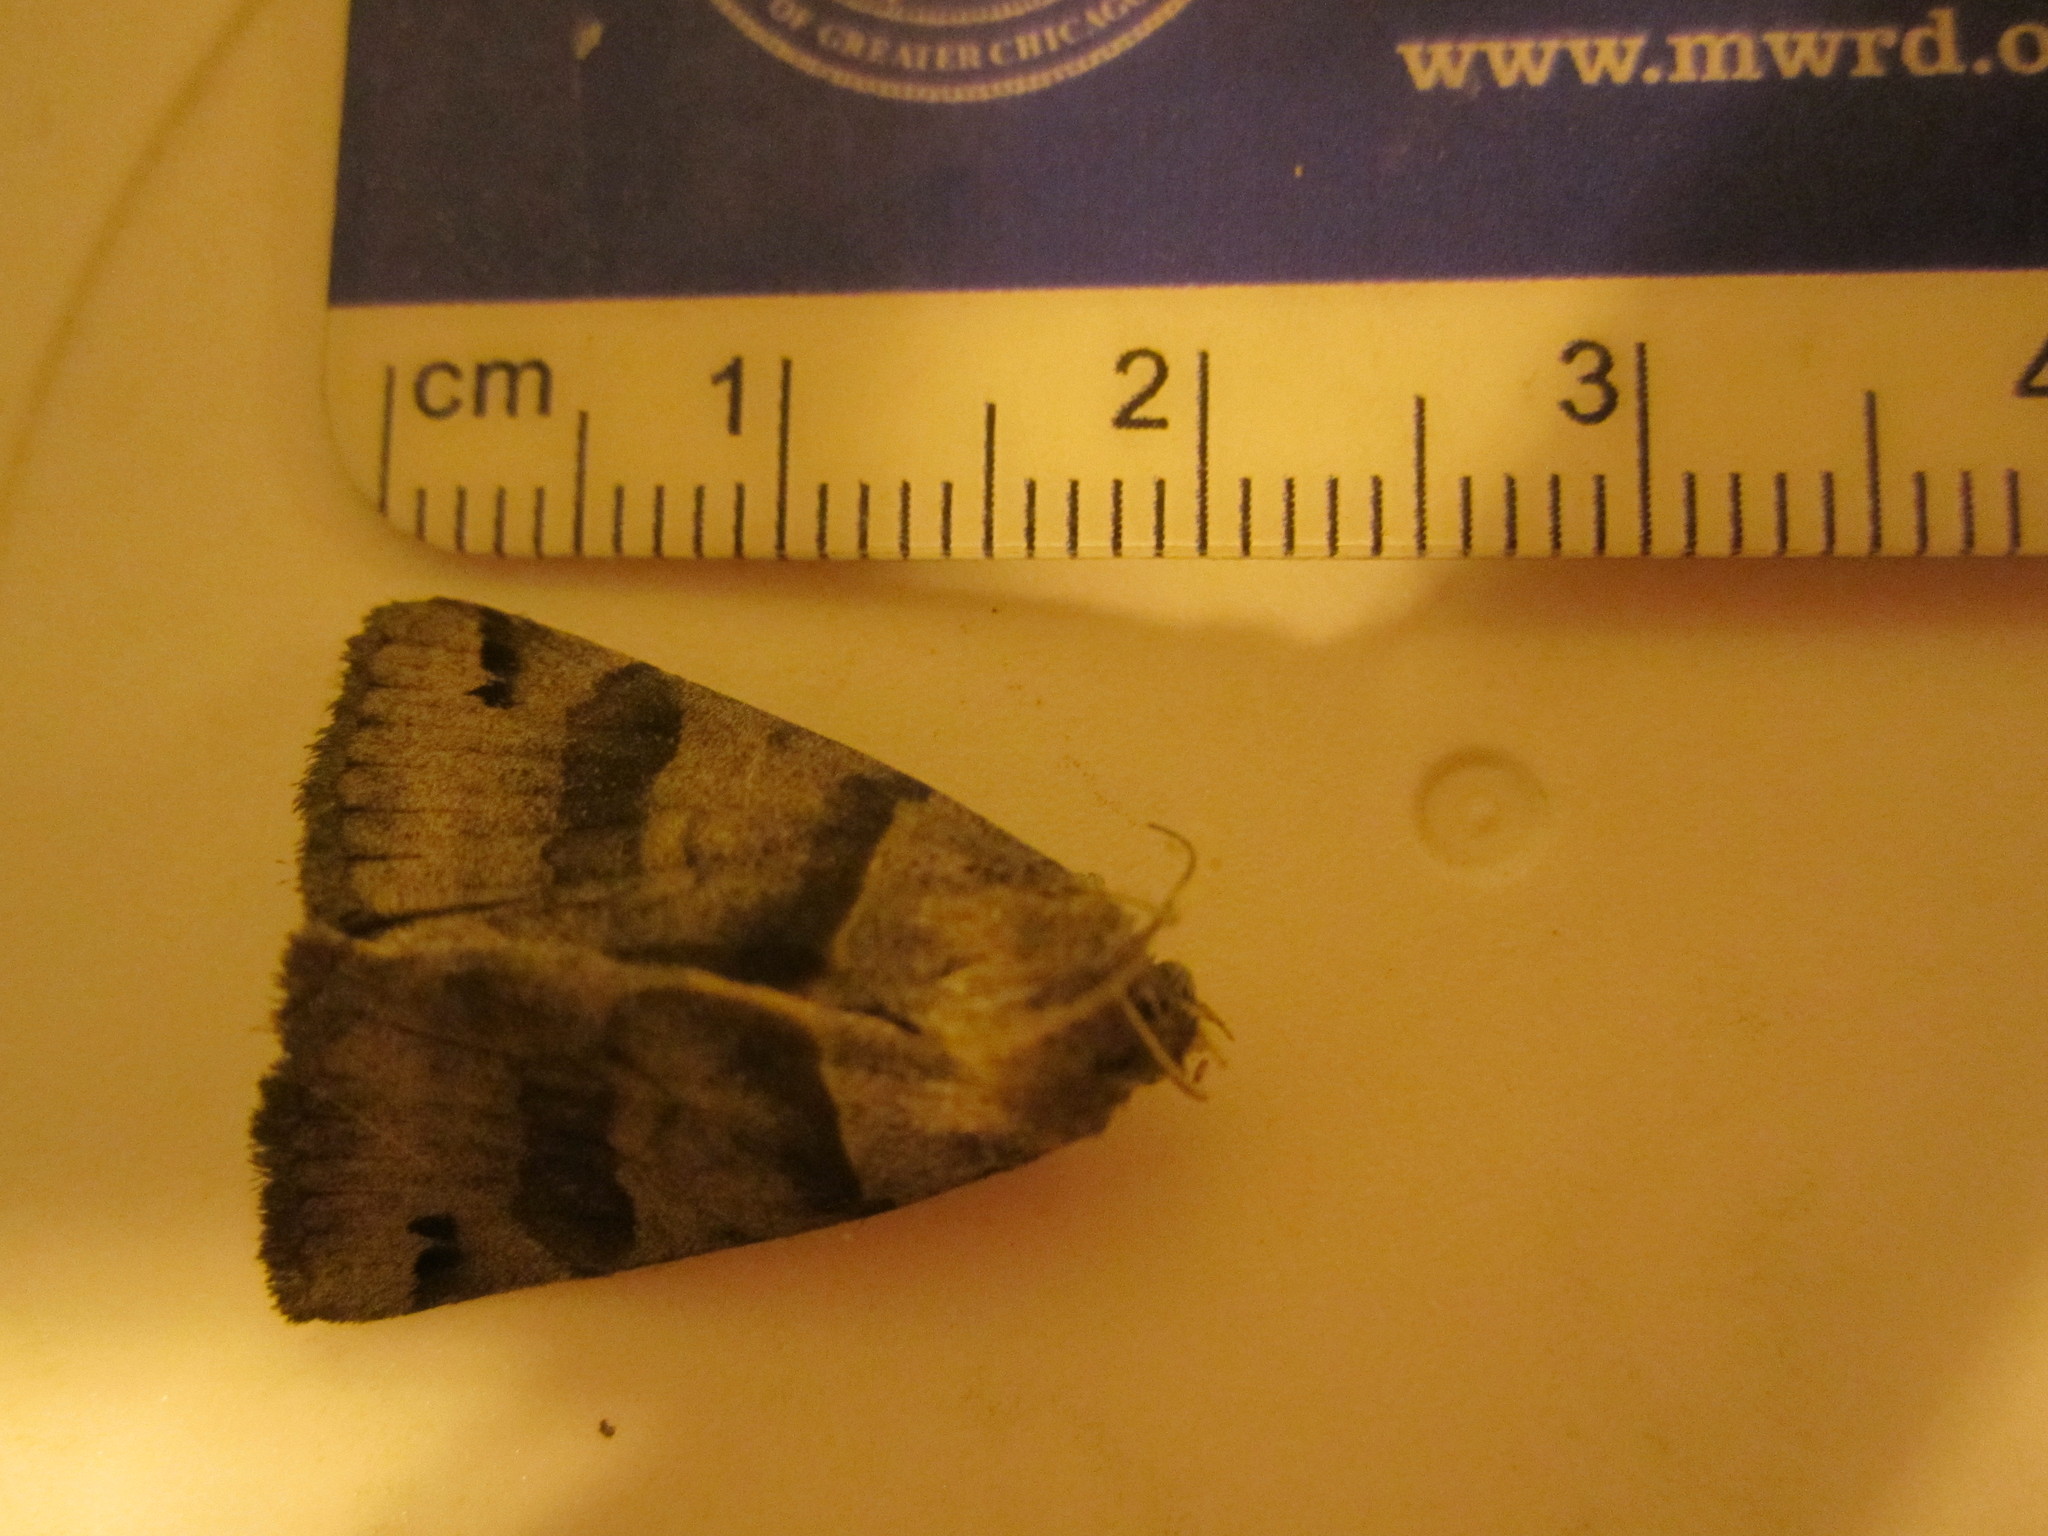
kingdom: Animalia
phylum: Arthropoda
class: Insecta
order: Lepidoptera
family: Erebidae
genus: Caenurgina
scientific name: Caenurgina erechtea
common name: Forage looper moth
